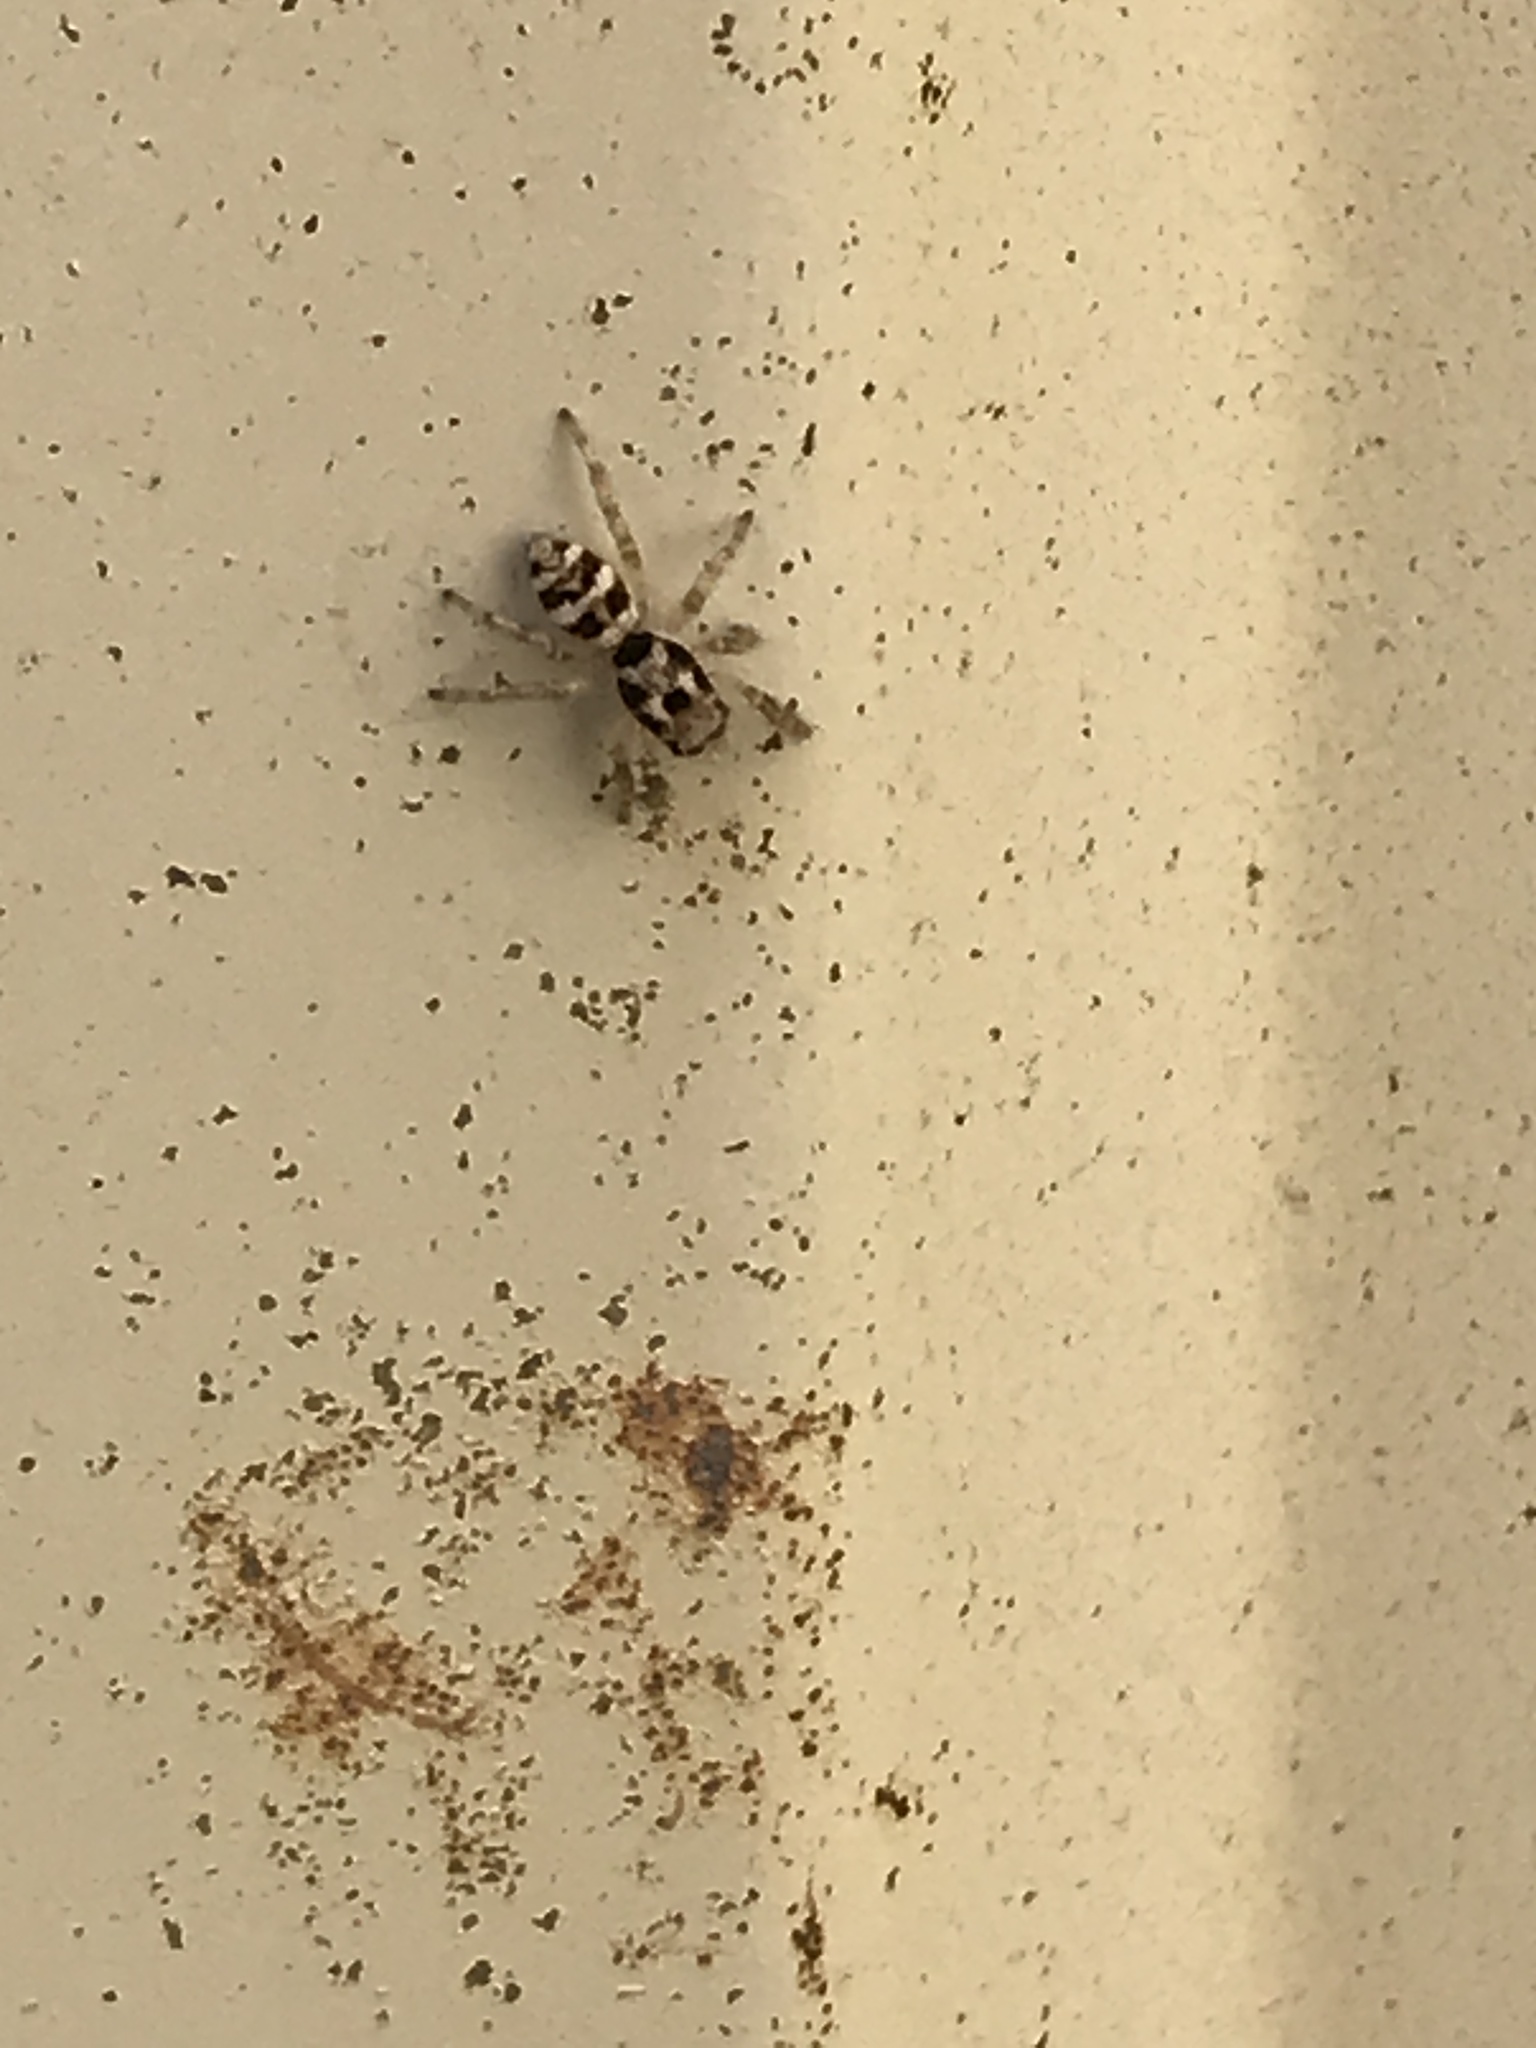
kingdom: Animalia
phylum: Arthropoda
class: Arachnida
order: Araneae
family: Salticidae
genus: Salticus
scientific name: Salticus scenicus
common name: Zebra jumper
